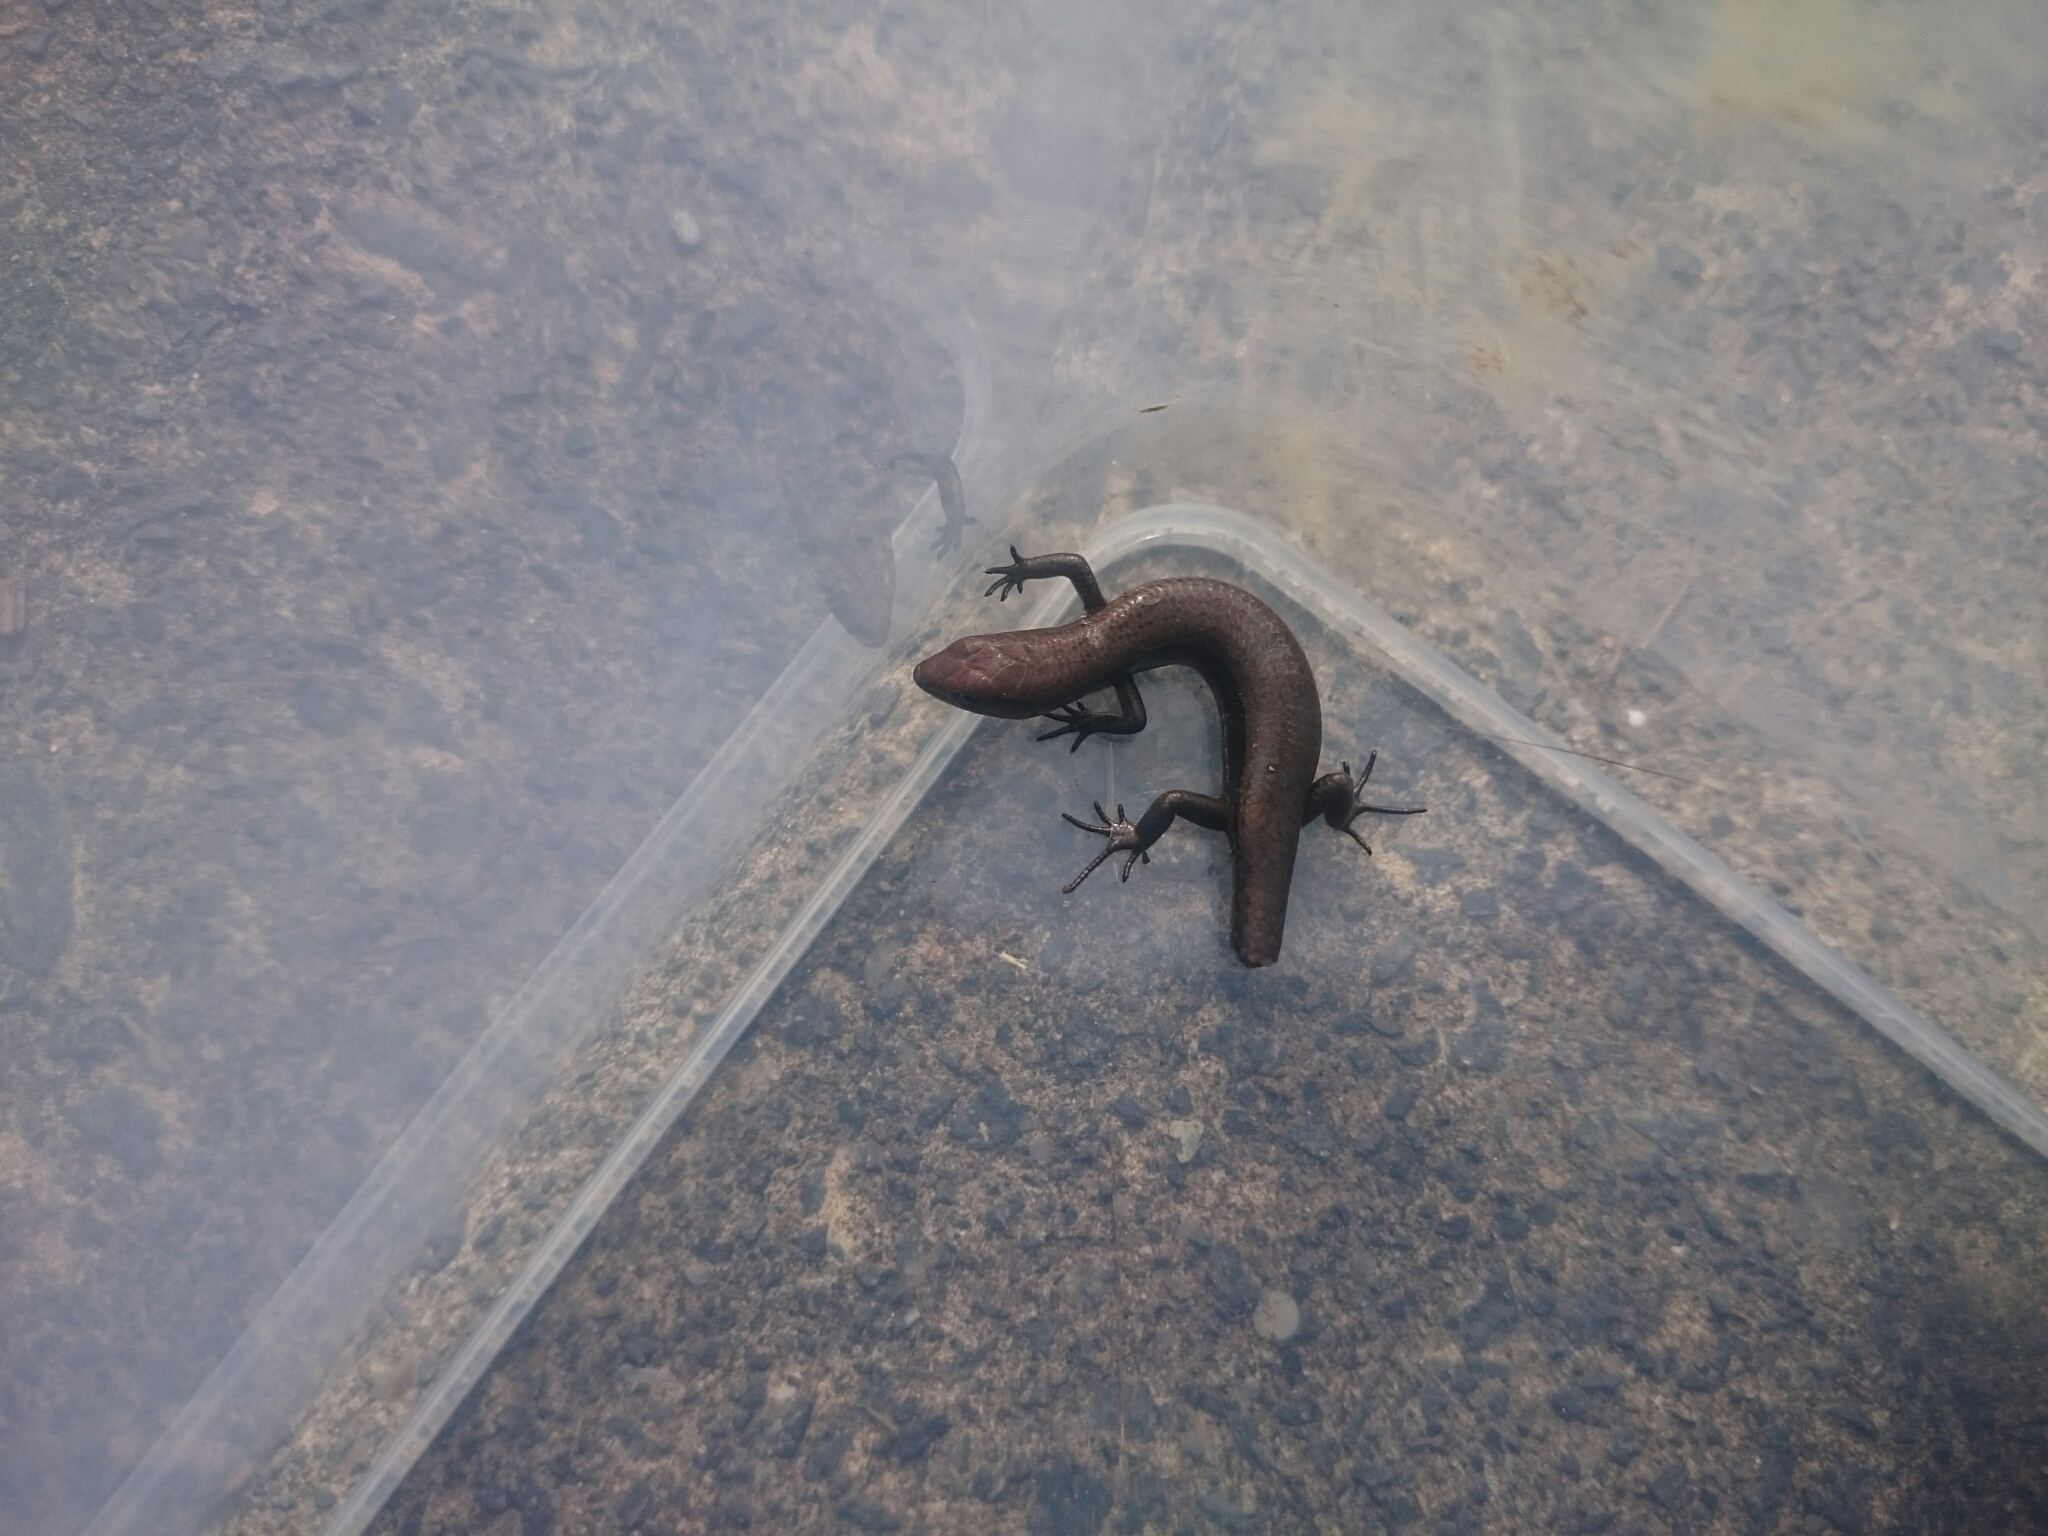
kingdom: Animalia
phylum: Chordata
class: Squamata
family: Scincidae
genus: Lampropholis
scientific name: Lampropholis delicata
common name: Plague skink
